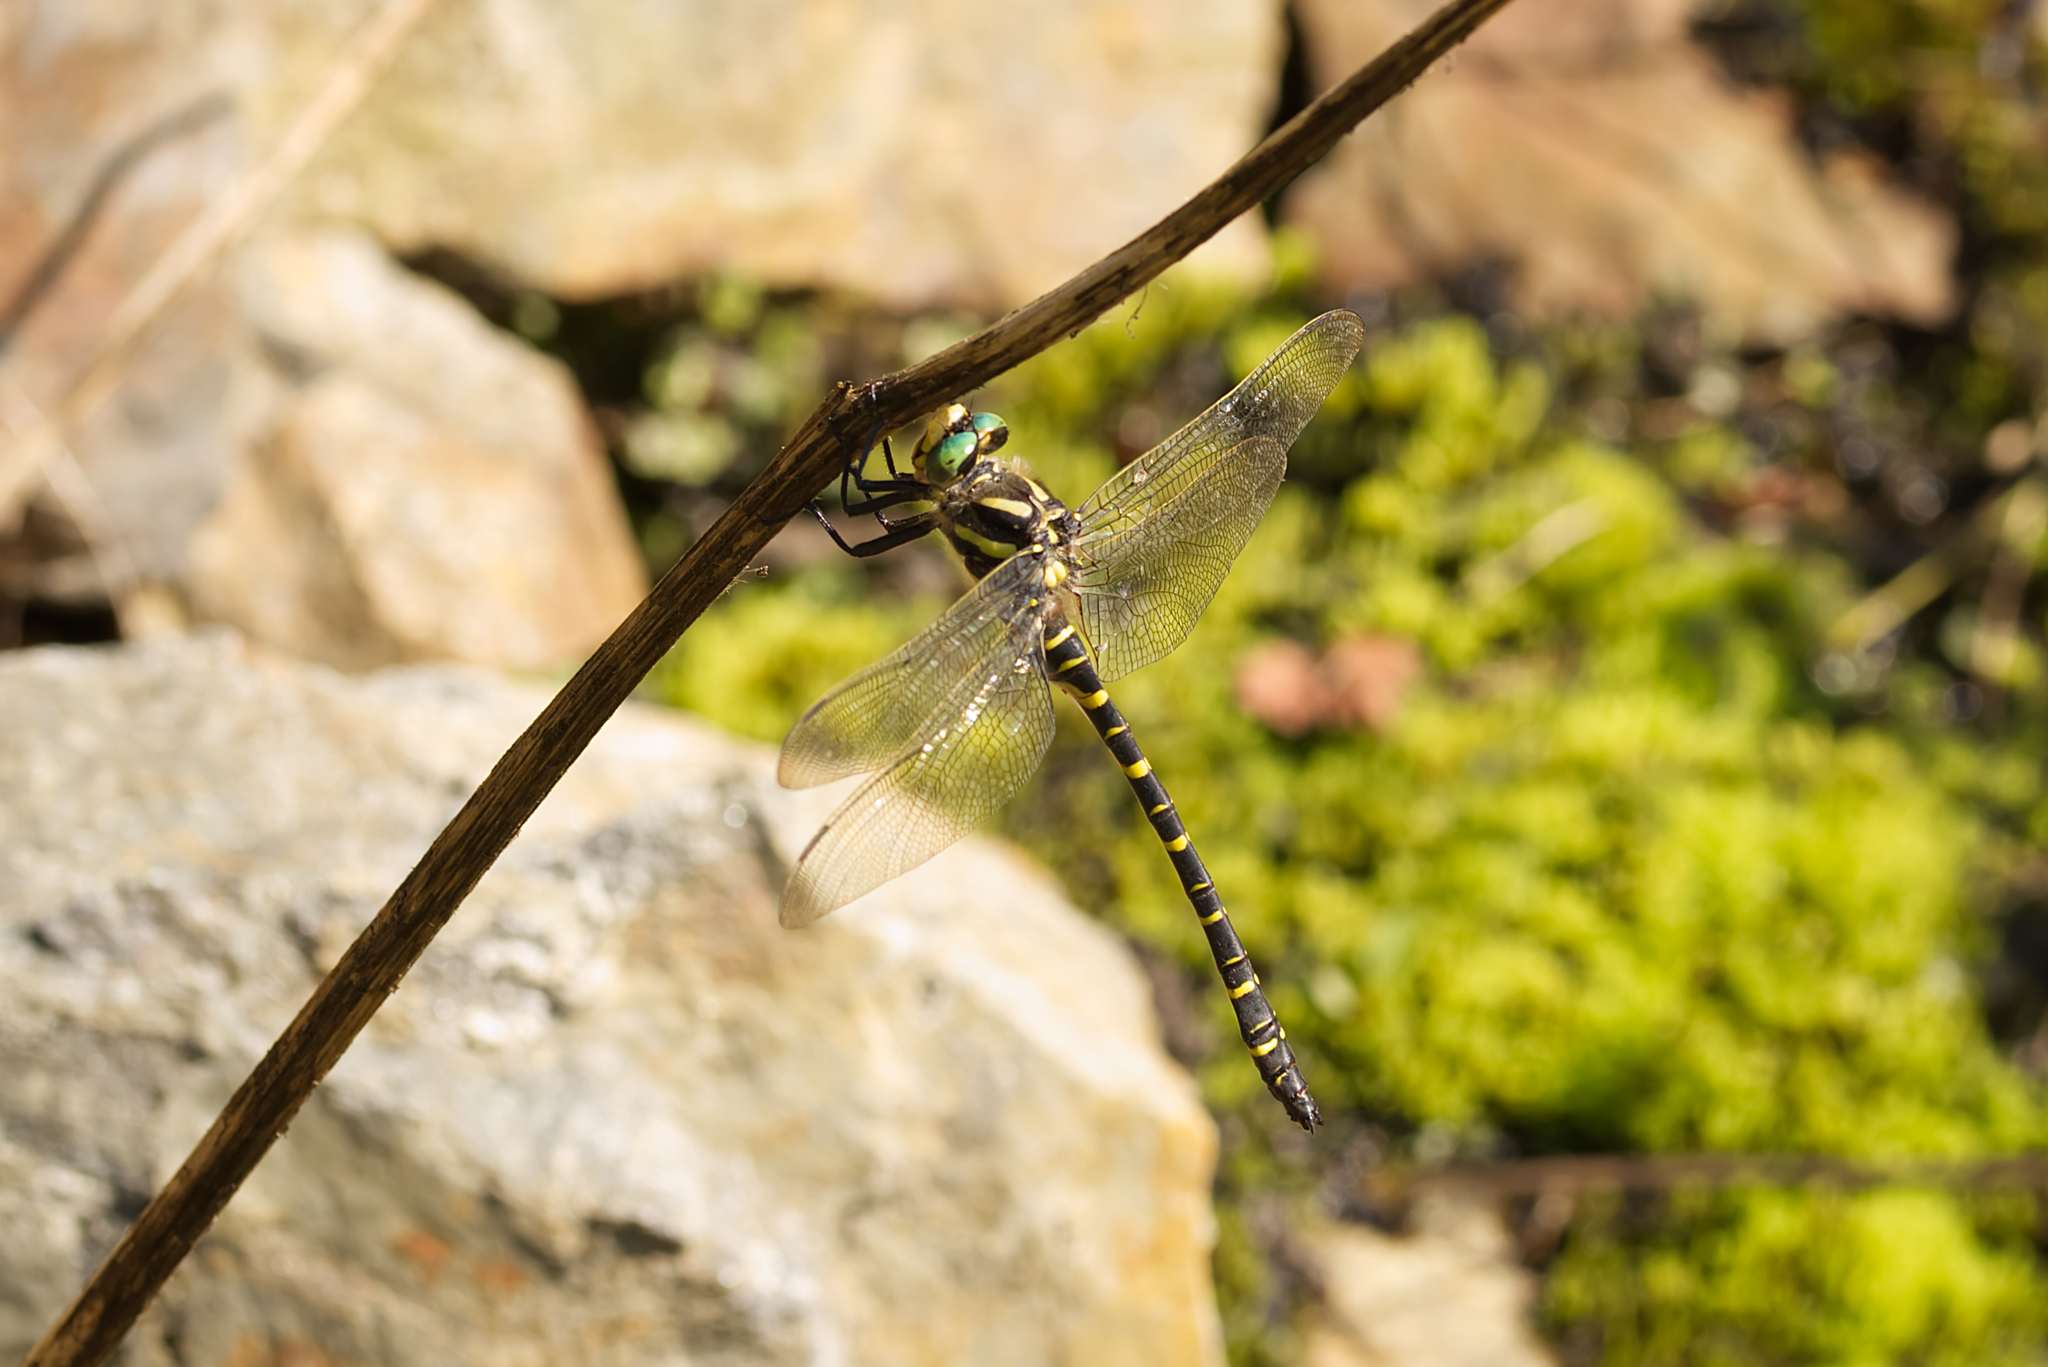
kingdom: Animalia
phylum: Arthropoda
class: Insecta
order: Odonata
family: Cordulegastridae
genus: Cordulegaster
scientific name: Cordulegaster boltonii
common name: Golden-ringed dragonfly
